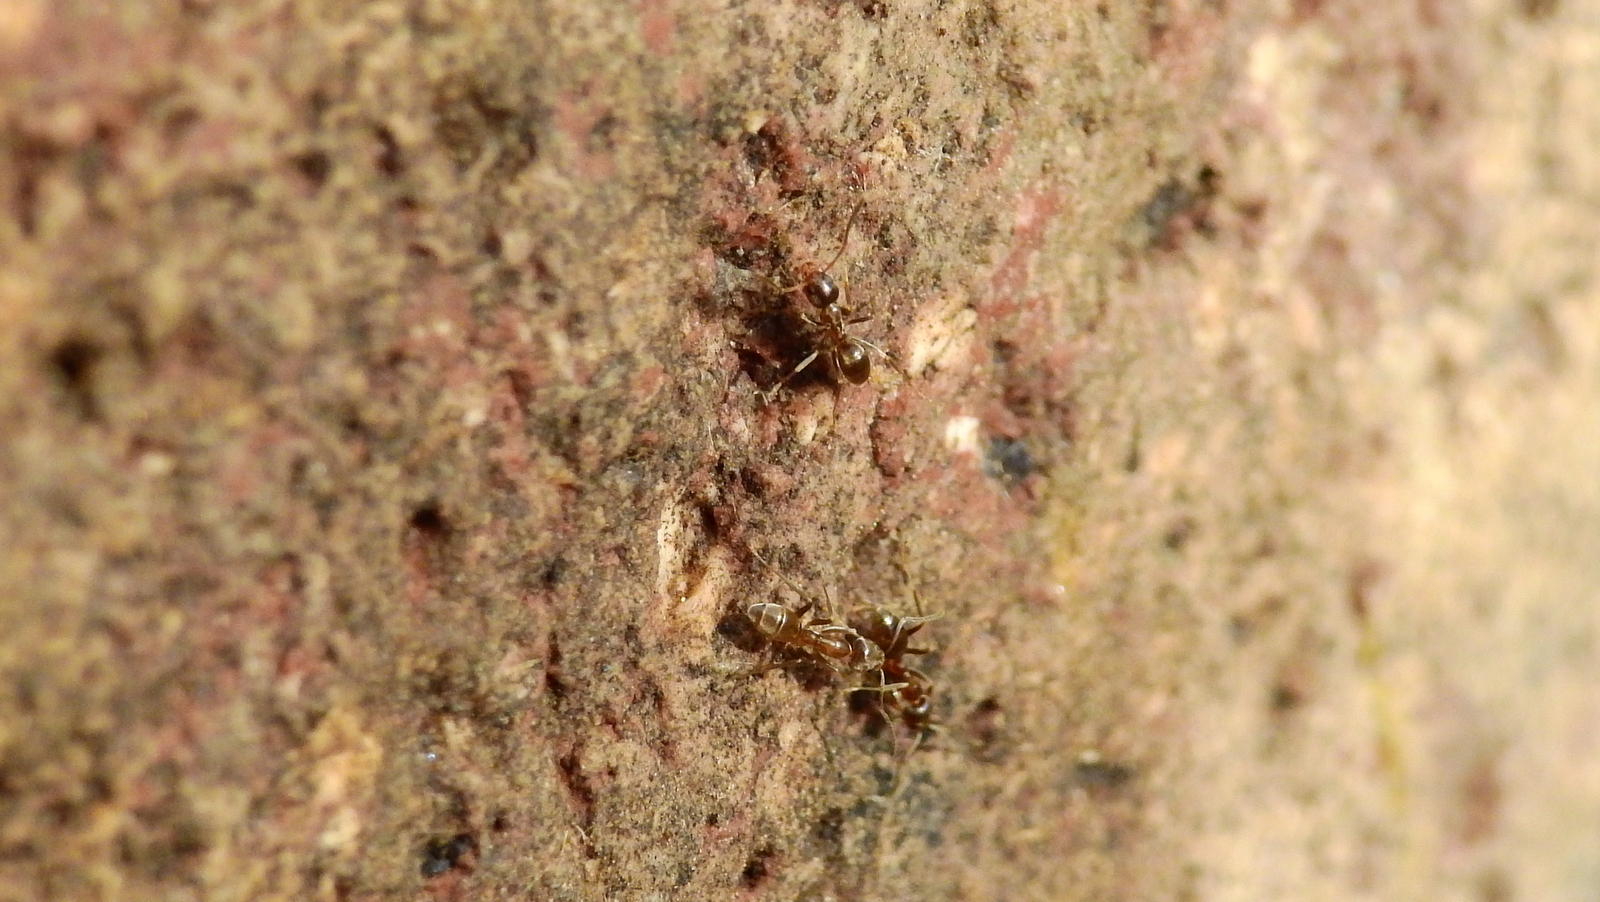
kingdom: Animalia
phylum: Arthropoda
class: Insecta
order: Hymenoptera
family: Formicidae
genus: Linepithema
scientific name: Linepithema humile
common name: Argentine ant
